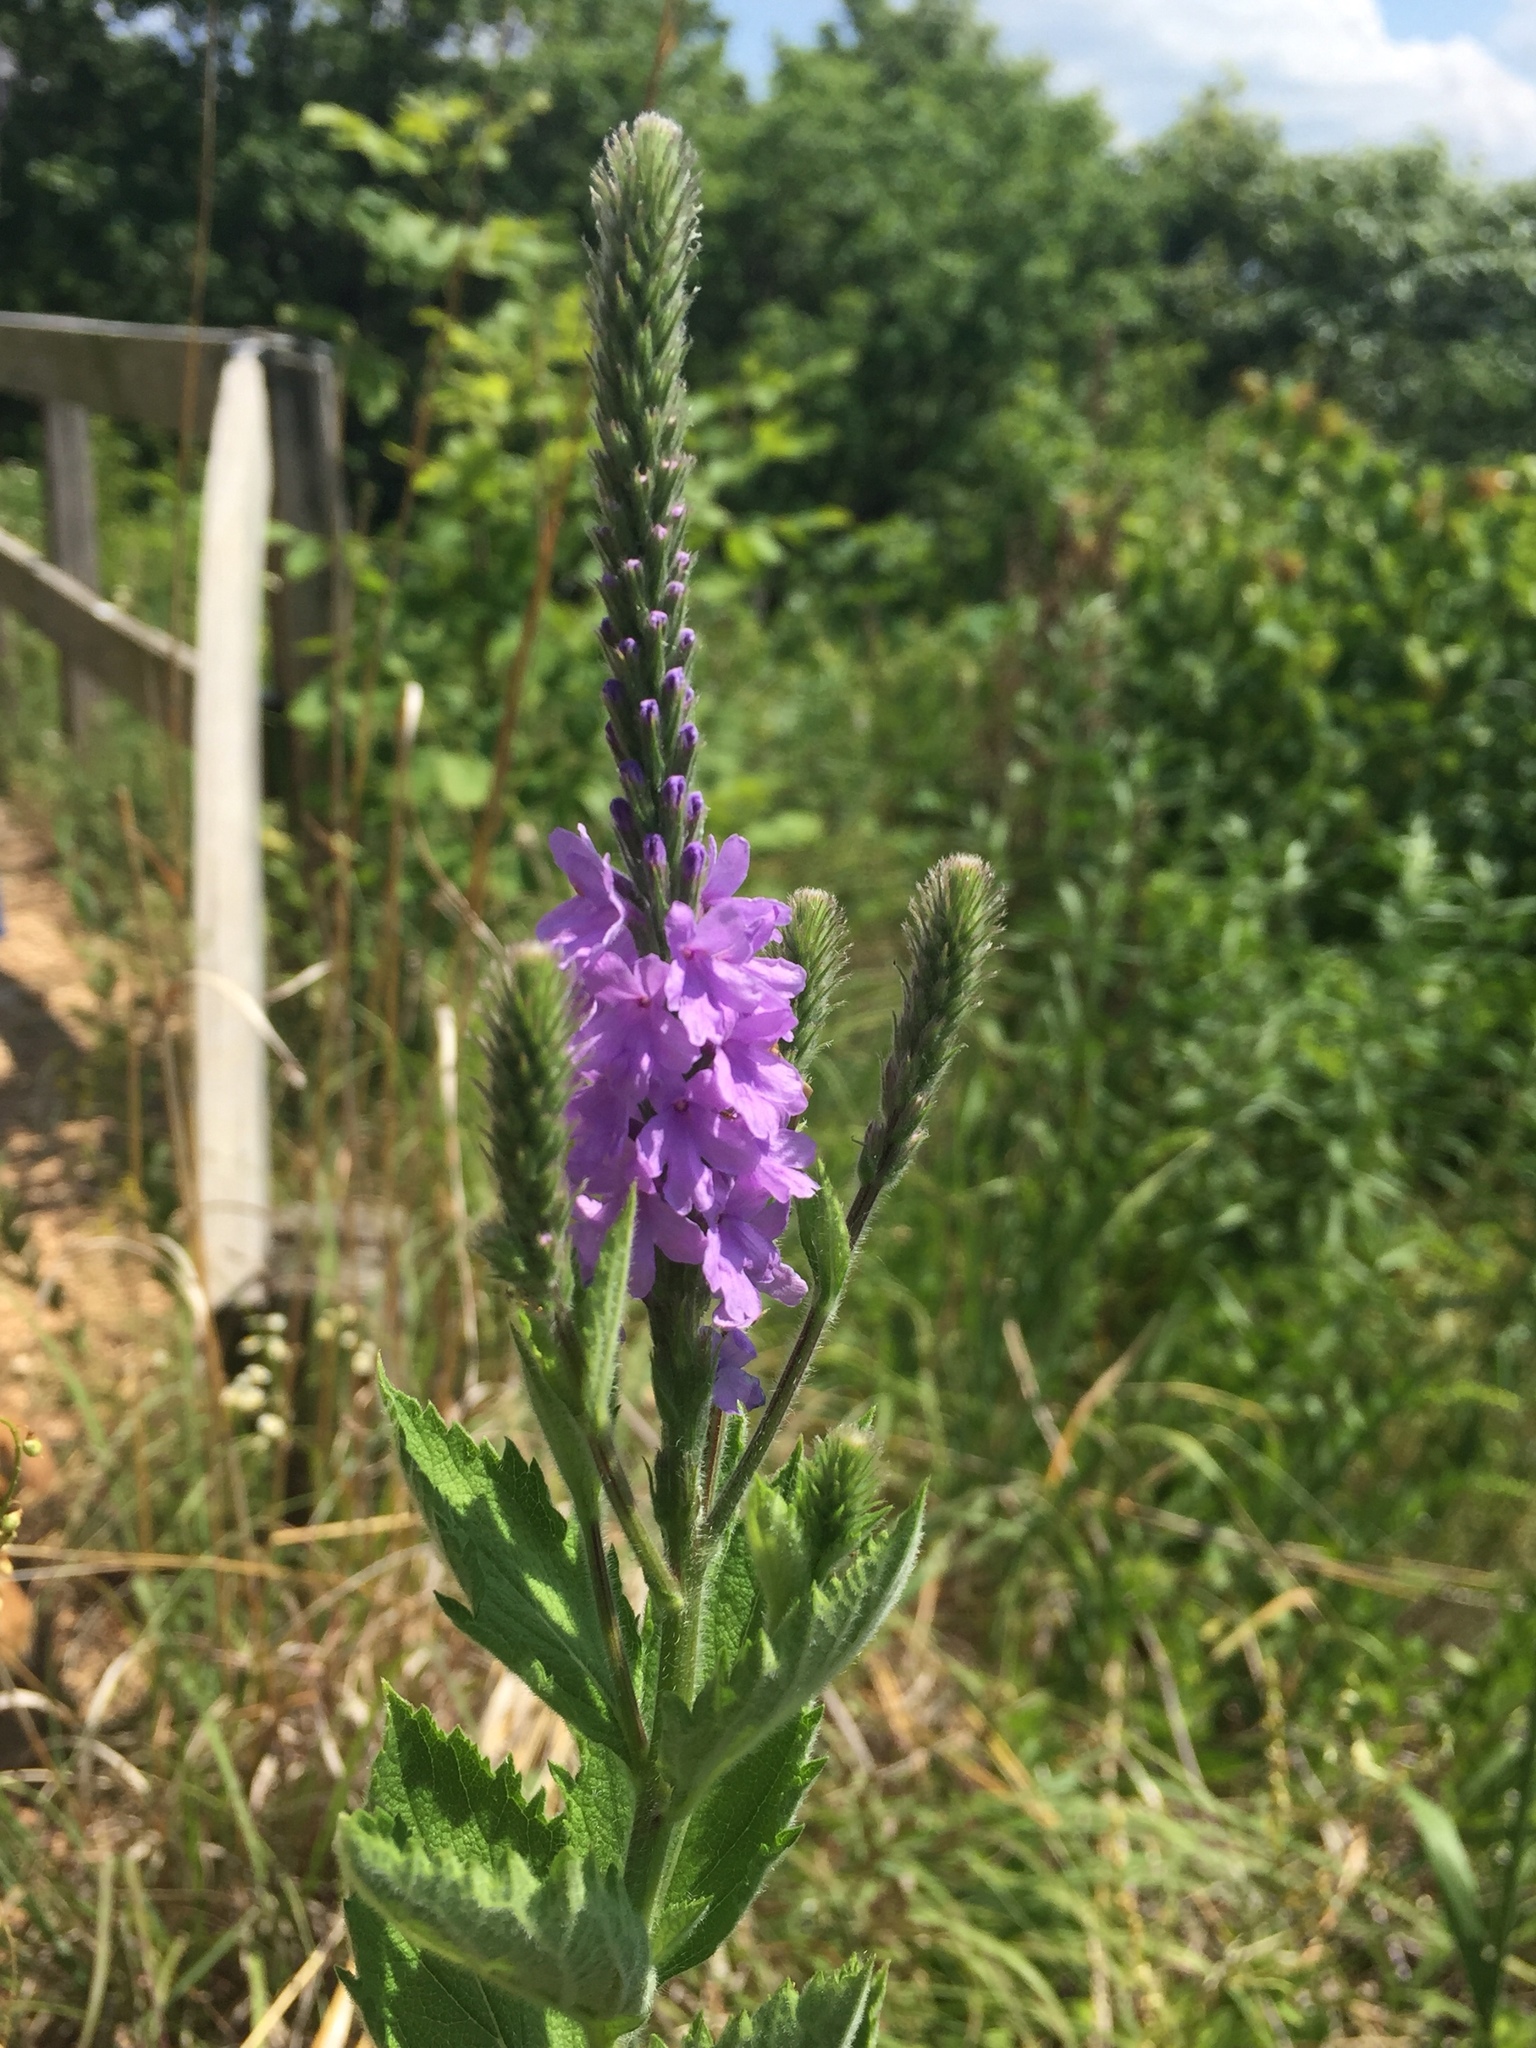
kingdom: Plantae
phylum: Tracheophyta
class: Magnoliopsida
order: Lamiales
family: Verbenaceae
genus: Verbena
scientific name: Verbena stricta
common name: Hoary vervain
